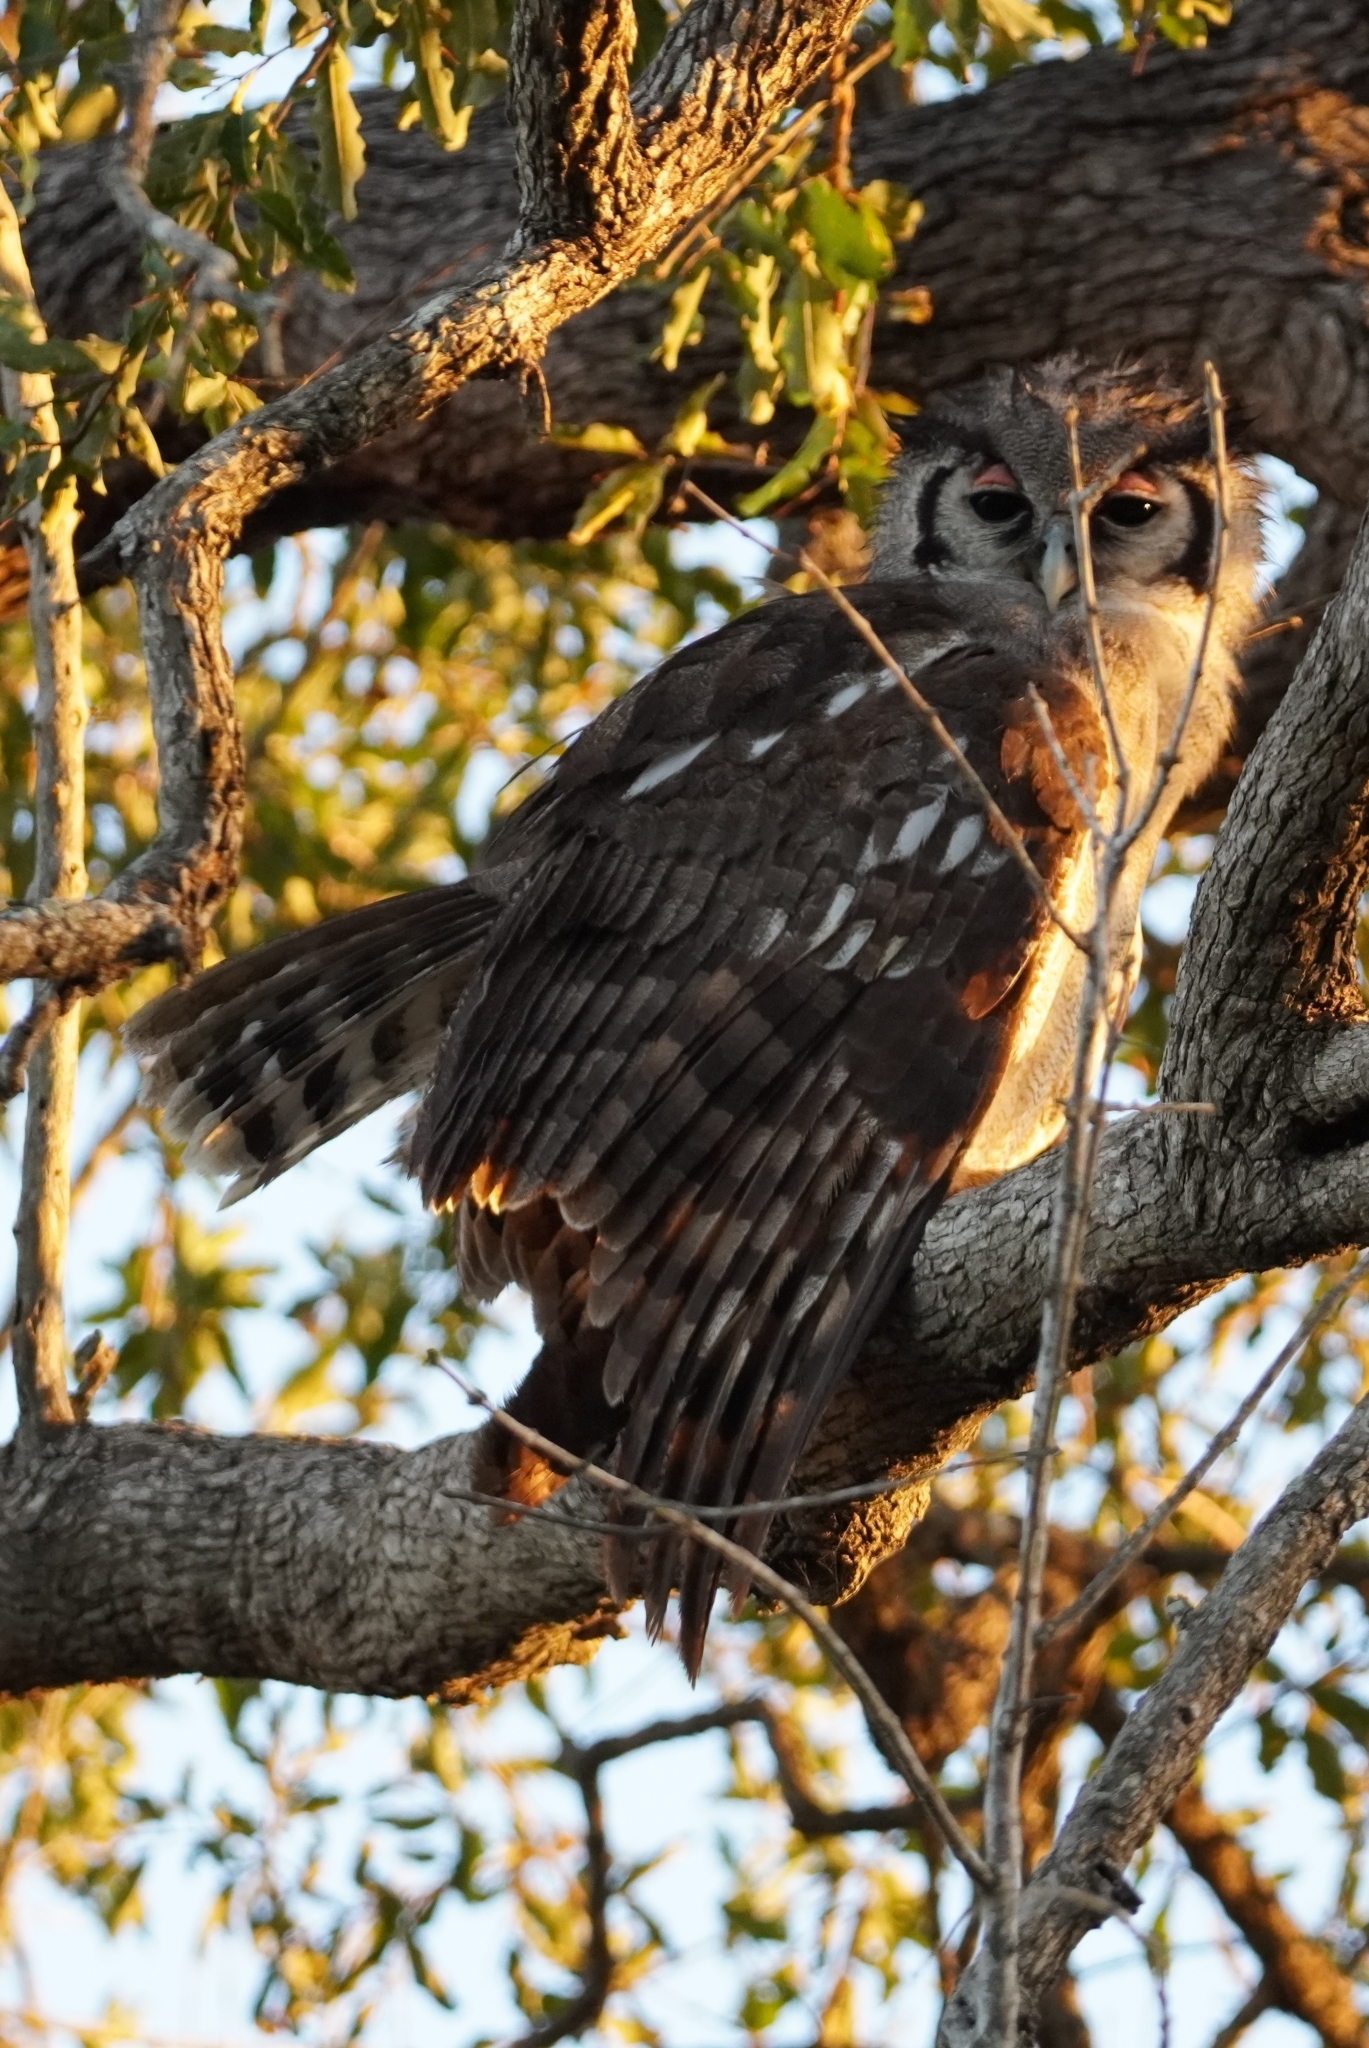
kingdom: Animalia
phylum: Chordata
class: Aves
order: Strigiformes
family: Strigidae
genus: Bubo
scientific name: Bubo lacteus
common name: Verreaux's eagle-owl
